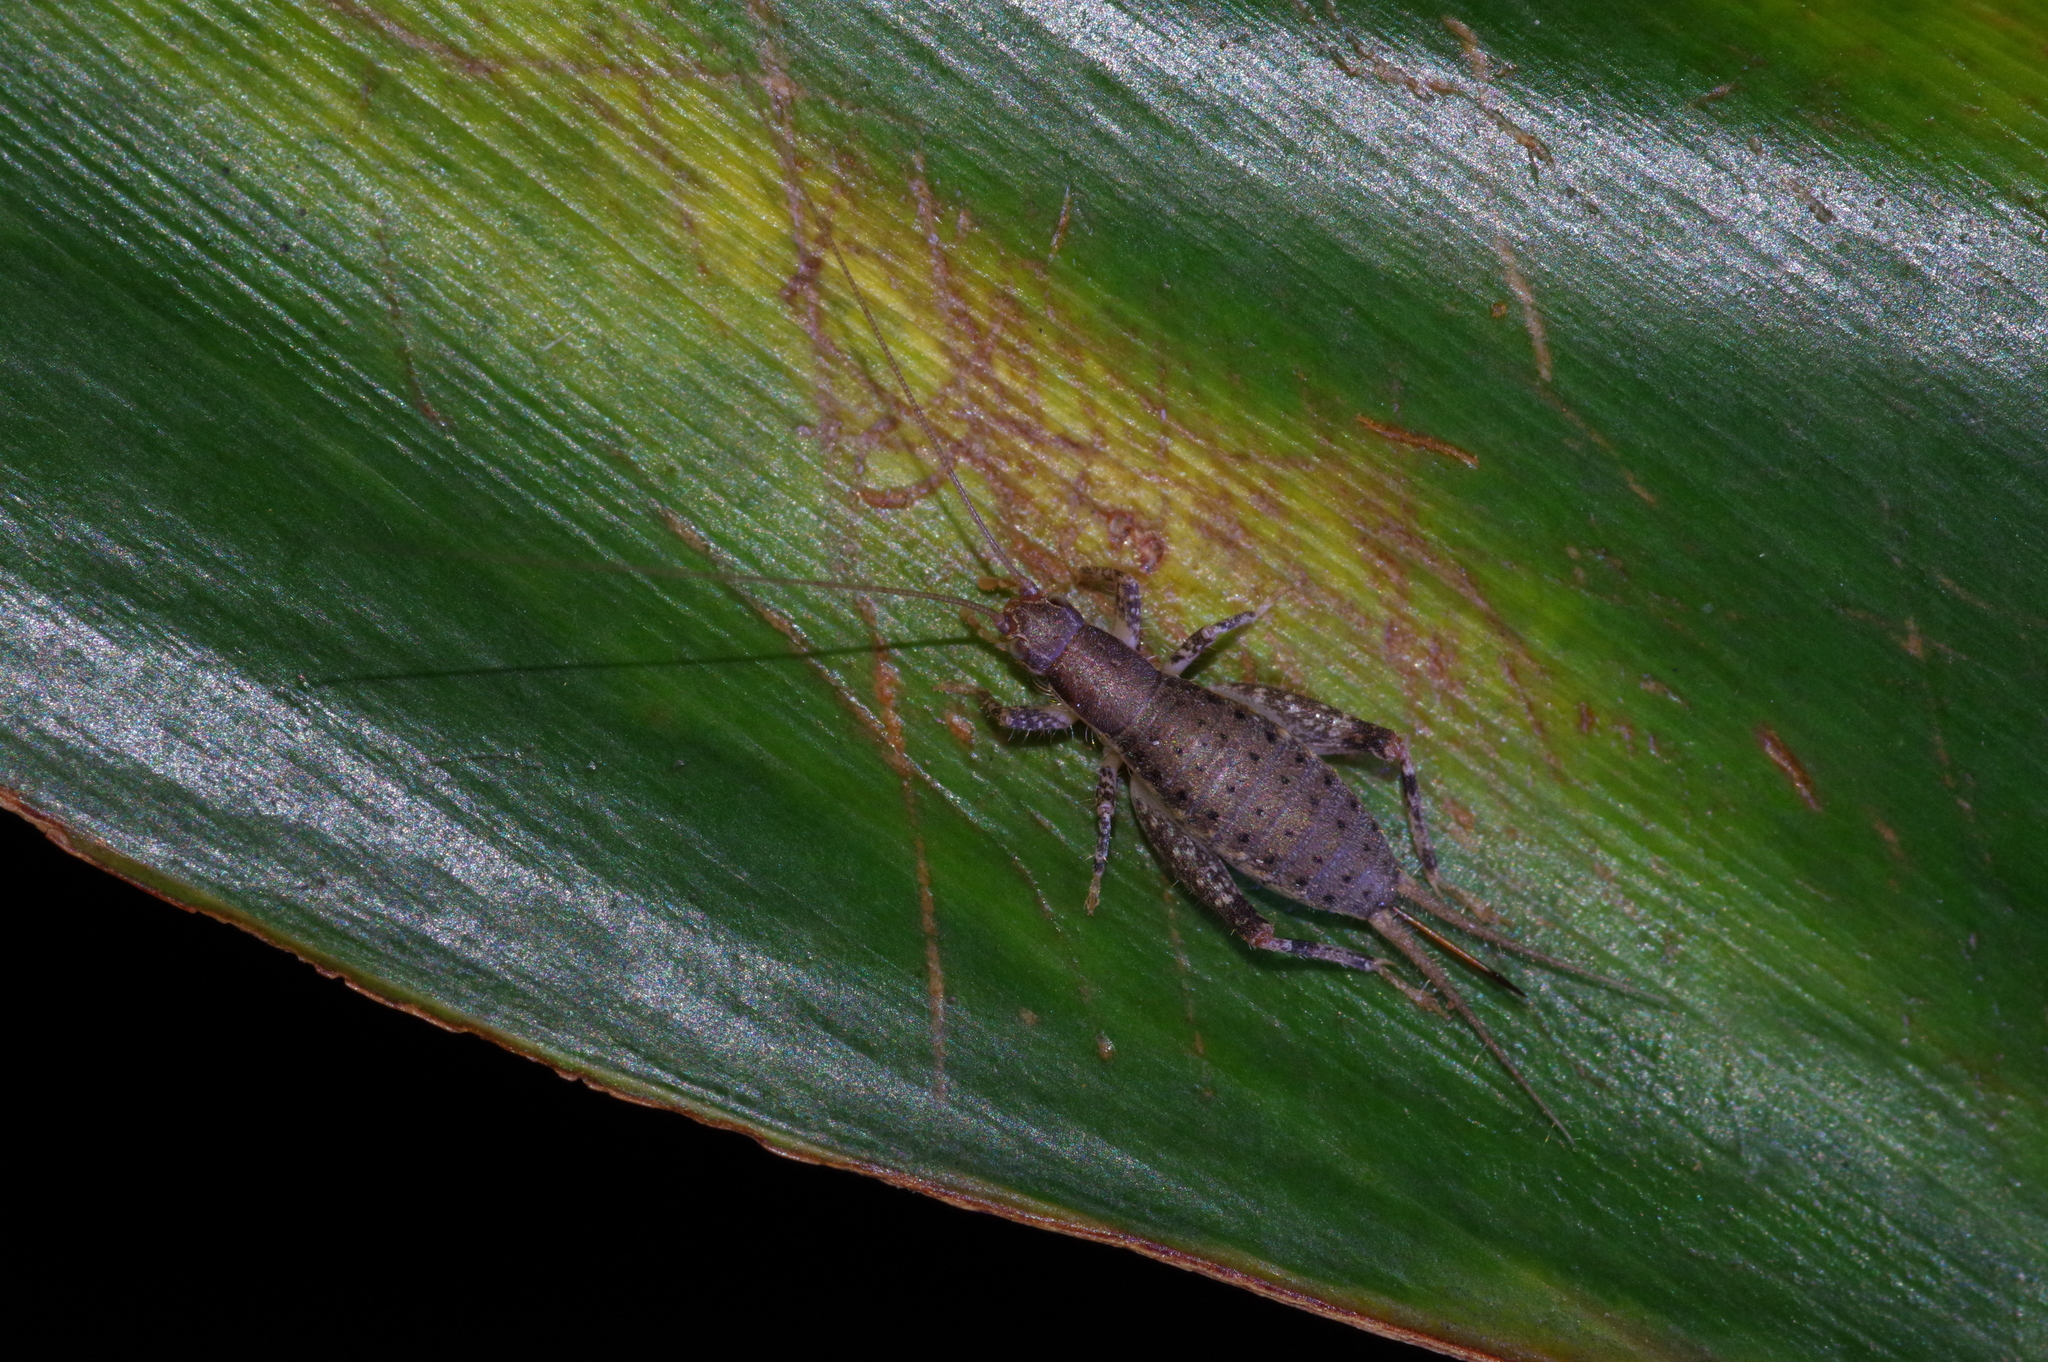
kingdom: Animalia
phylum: Arthropoda
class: Insecta
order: Orthoptera
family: Mogoplistidae
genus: Ornebius
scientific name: Ornebius kanetataki
